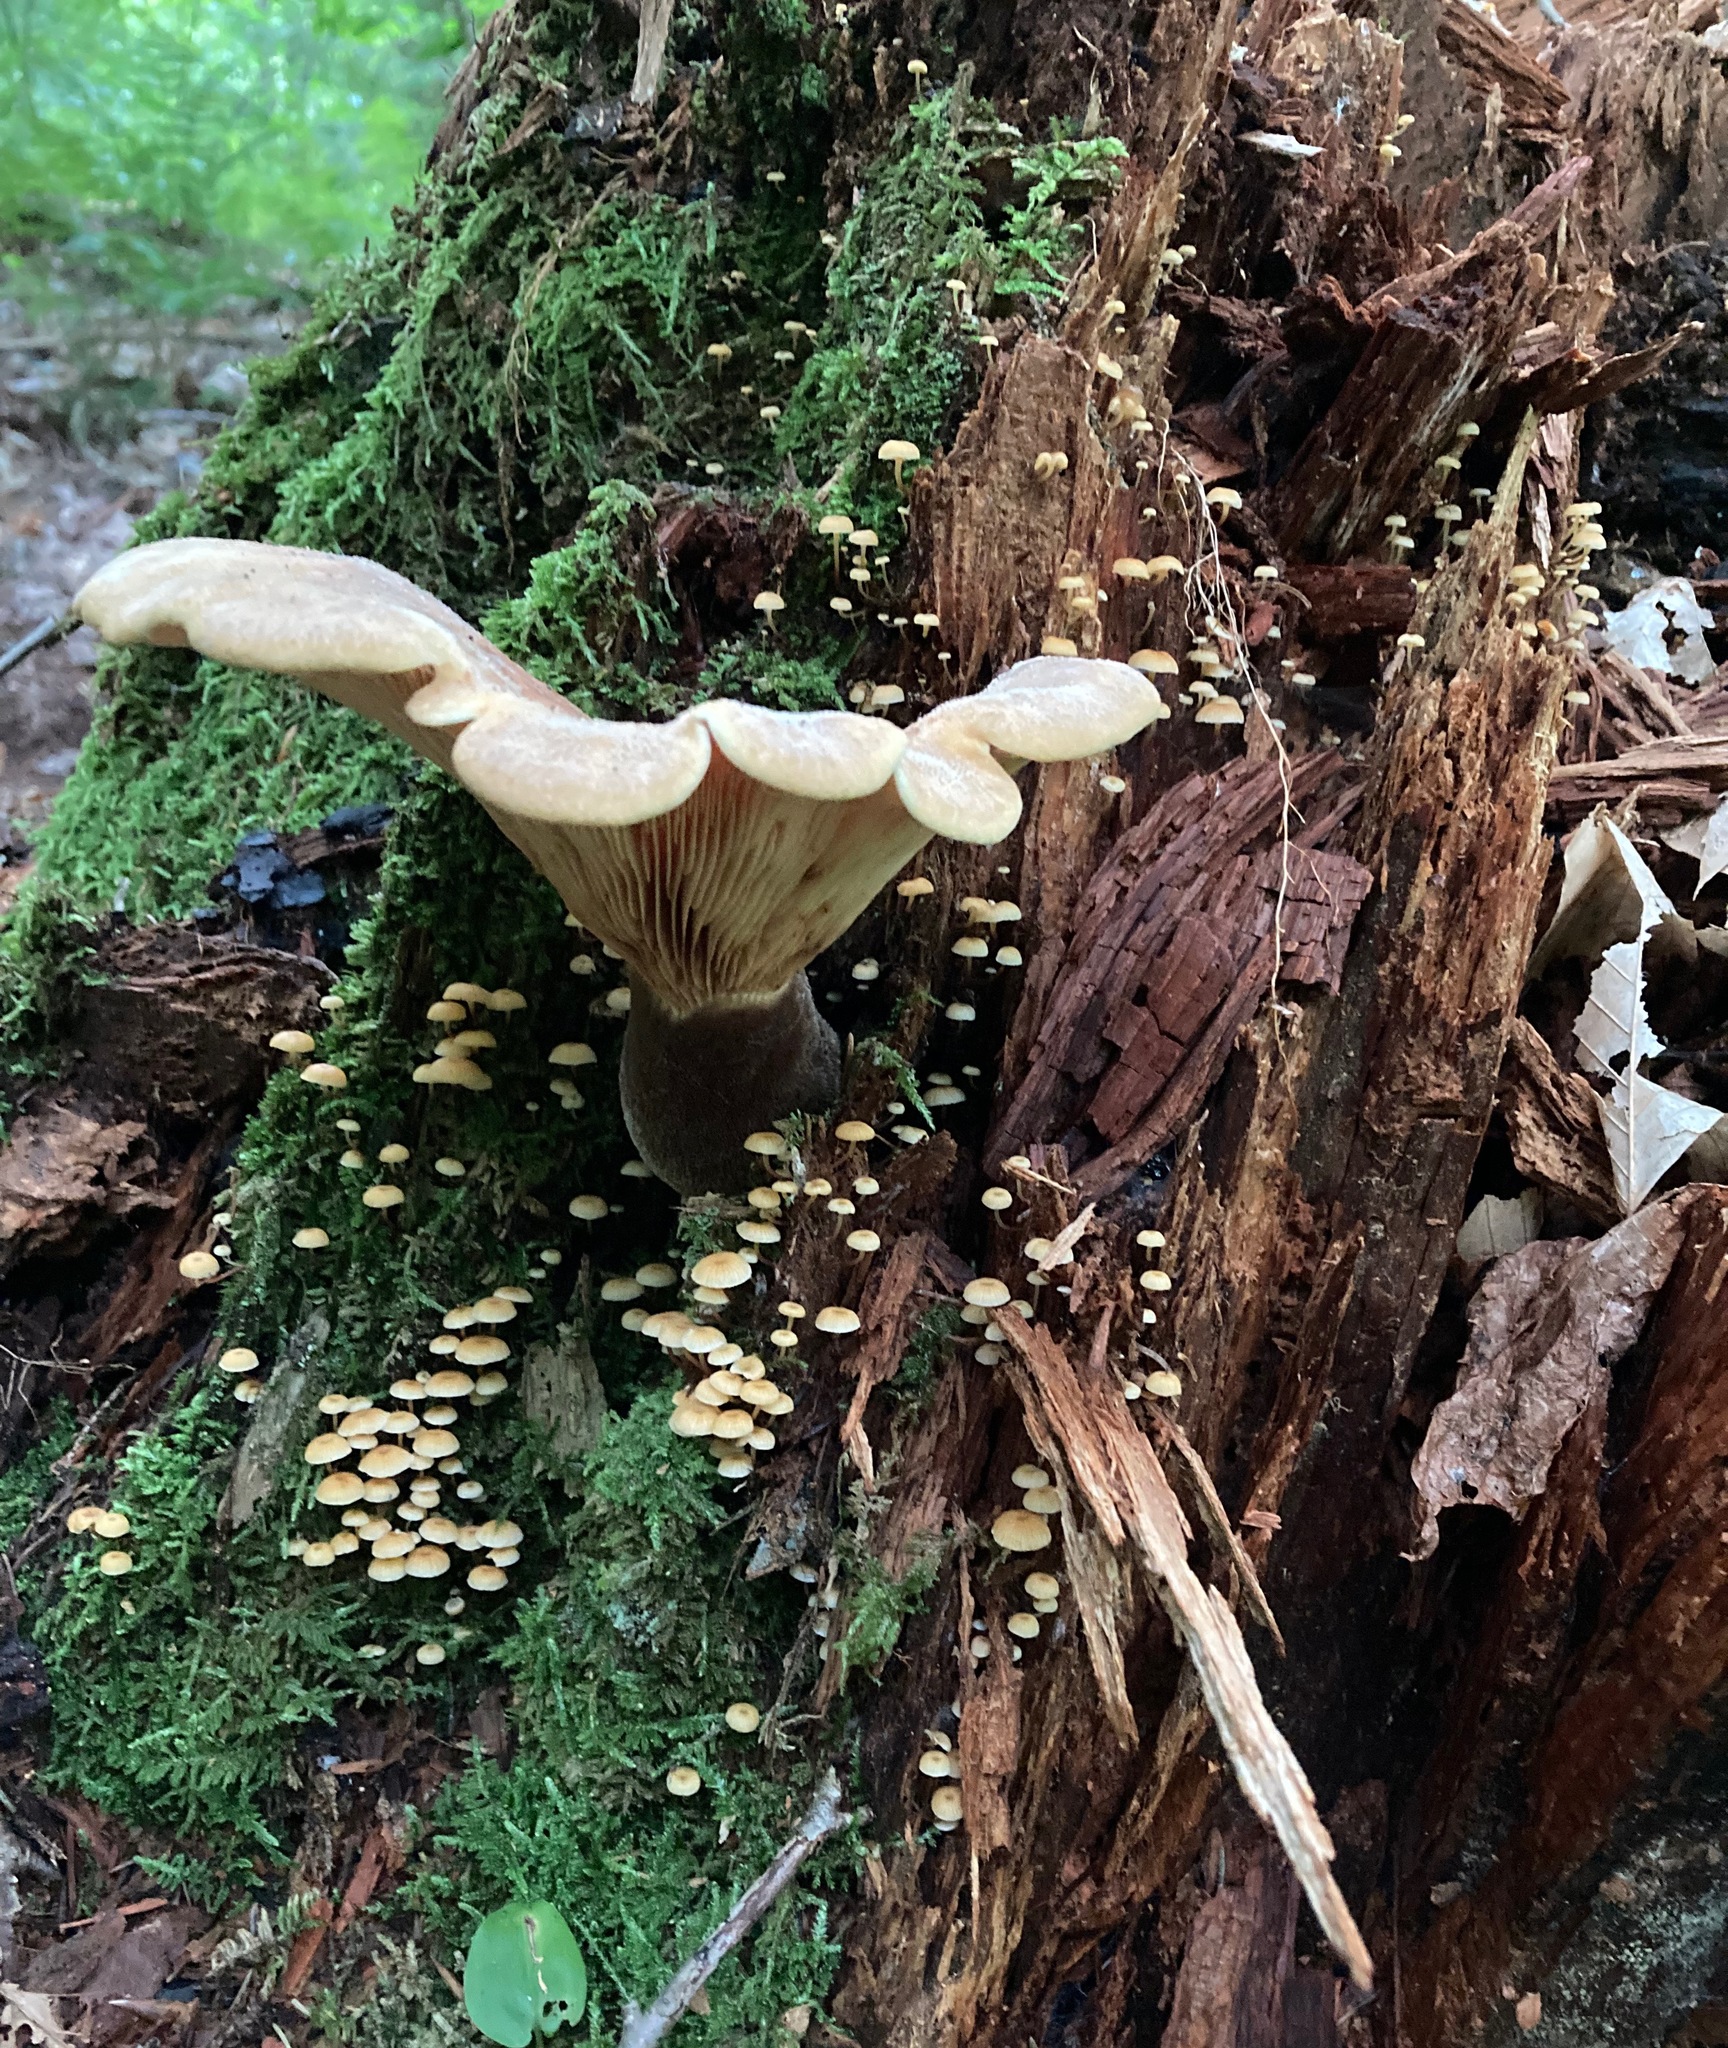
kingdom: Fungi
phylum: Basidiomycota
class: Agaricomycetes
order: Boletales
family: Tapinellaceae
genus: Tapinella
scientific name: Tapinella atrotomentosa
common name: Velvet rollrim
